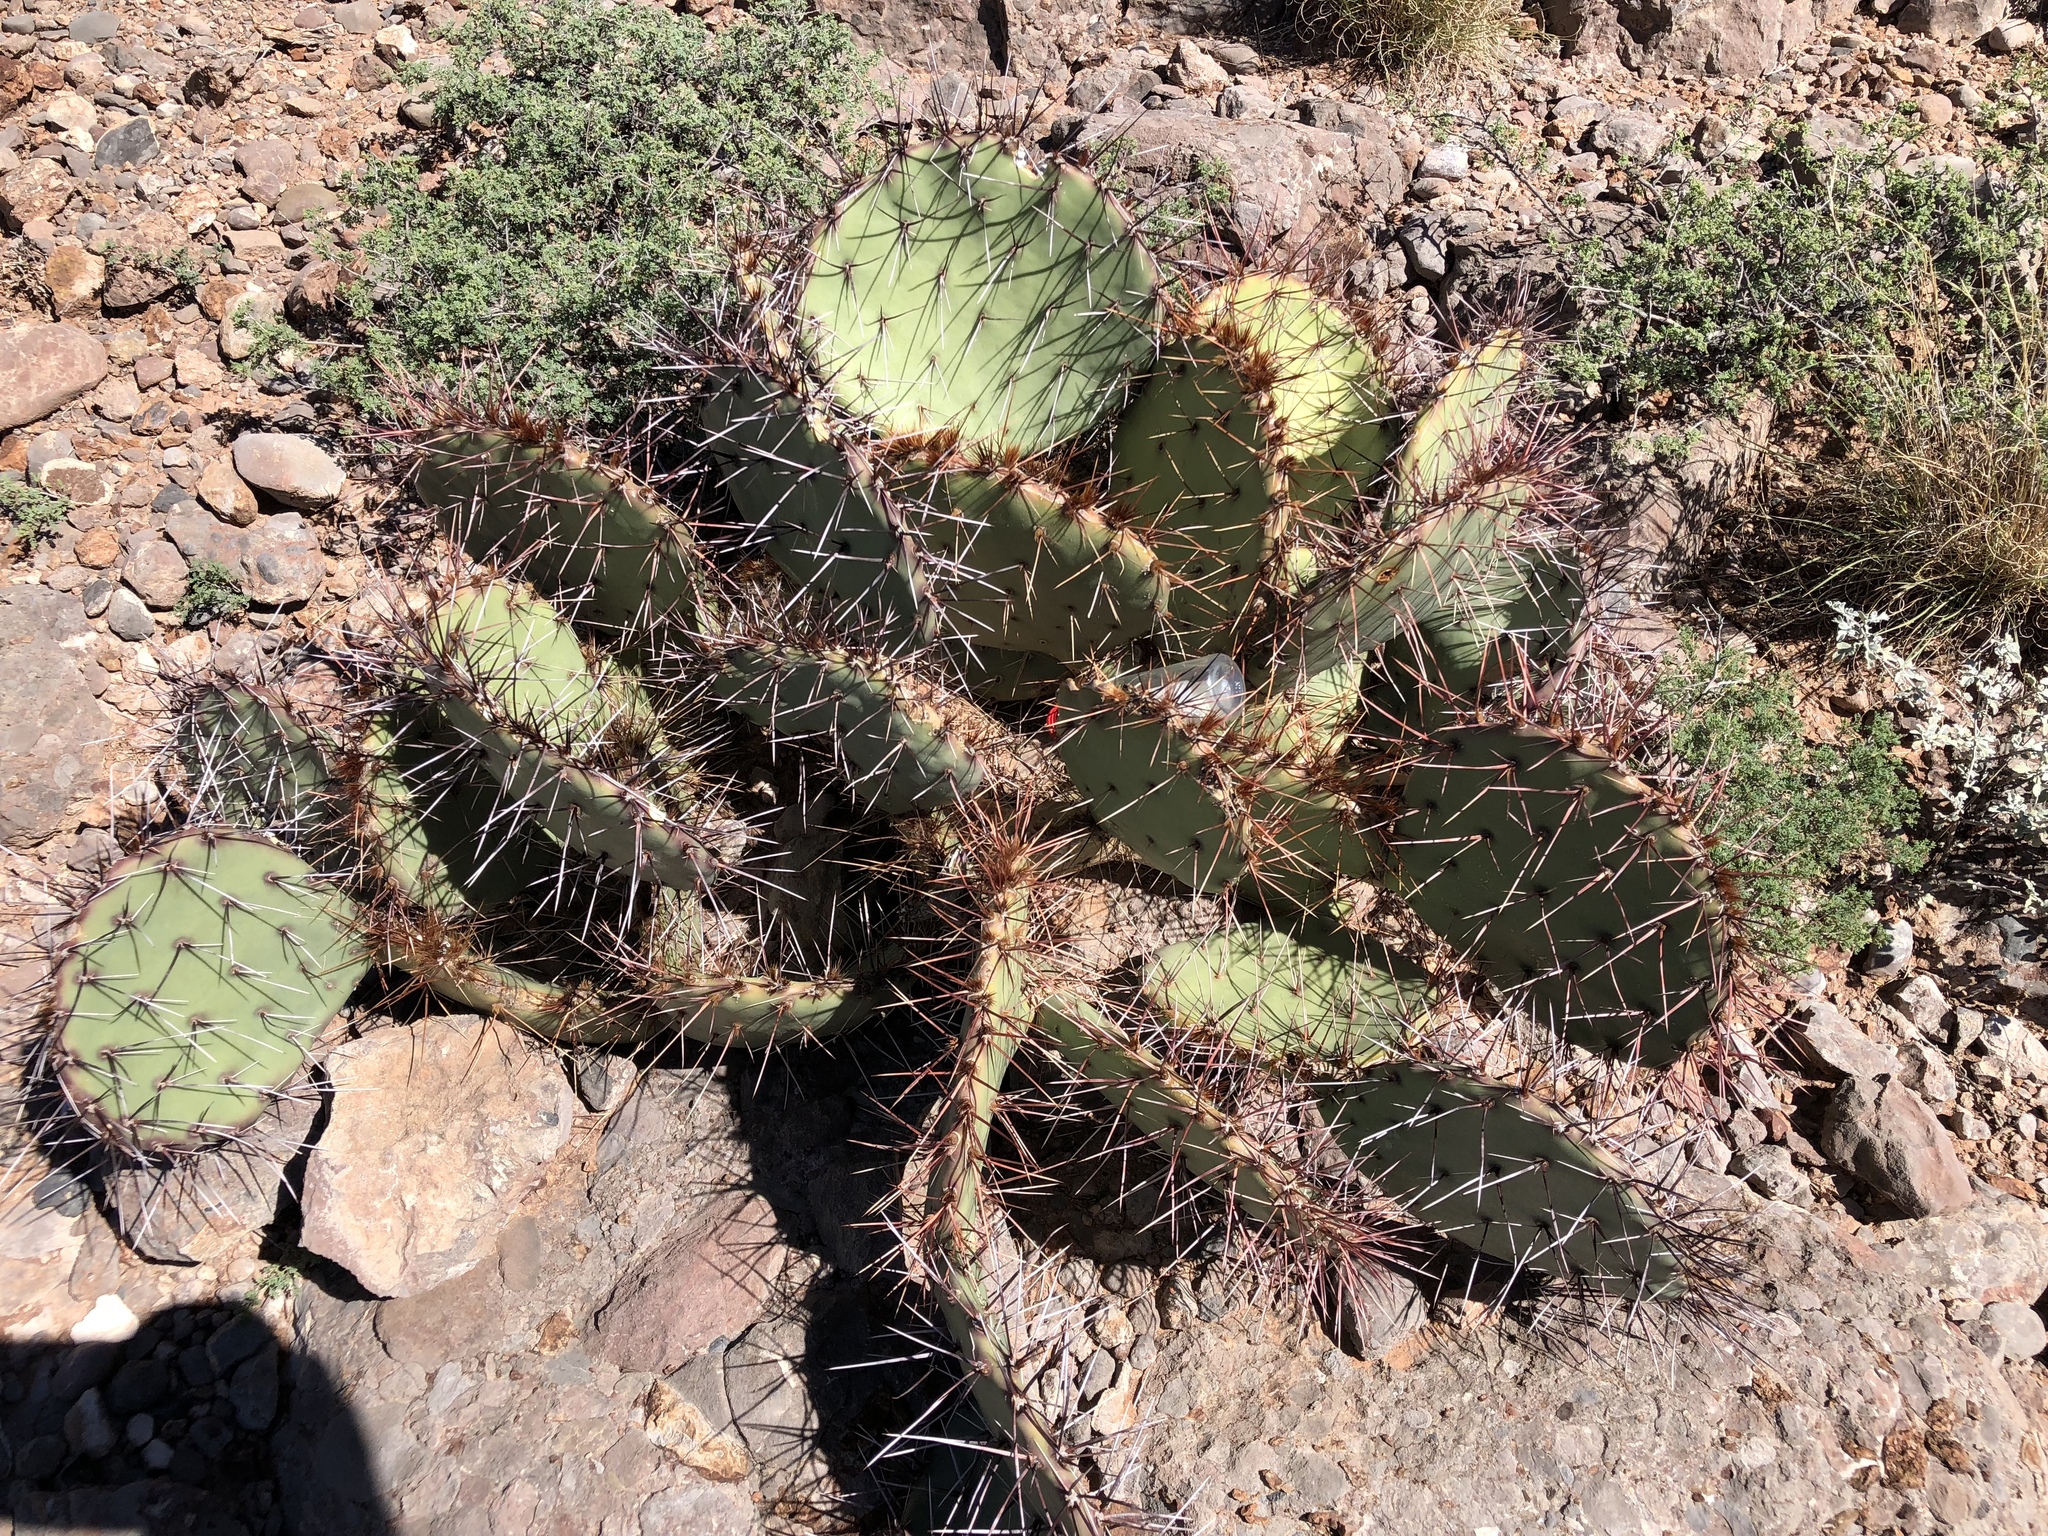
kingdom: Plantae
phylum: Tracheophyta
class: Magnoliopsida
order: Caryophyllales
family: Cactaceae
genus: Opuntia
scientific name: Opuntia phaeacantha
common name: New mexico prickly-pear
